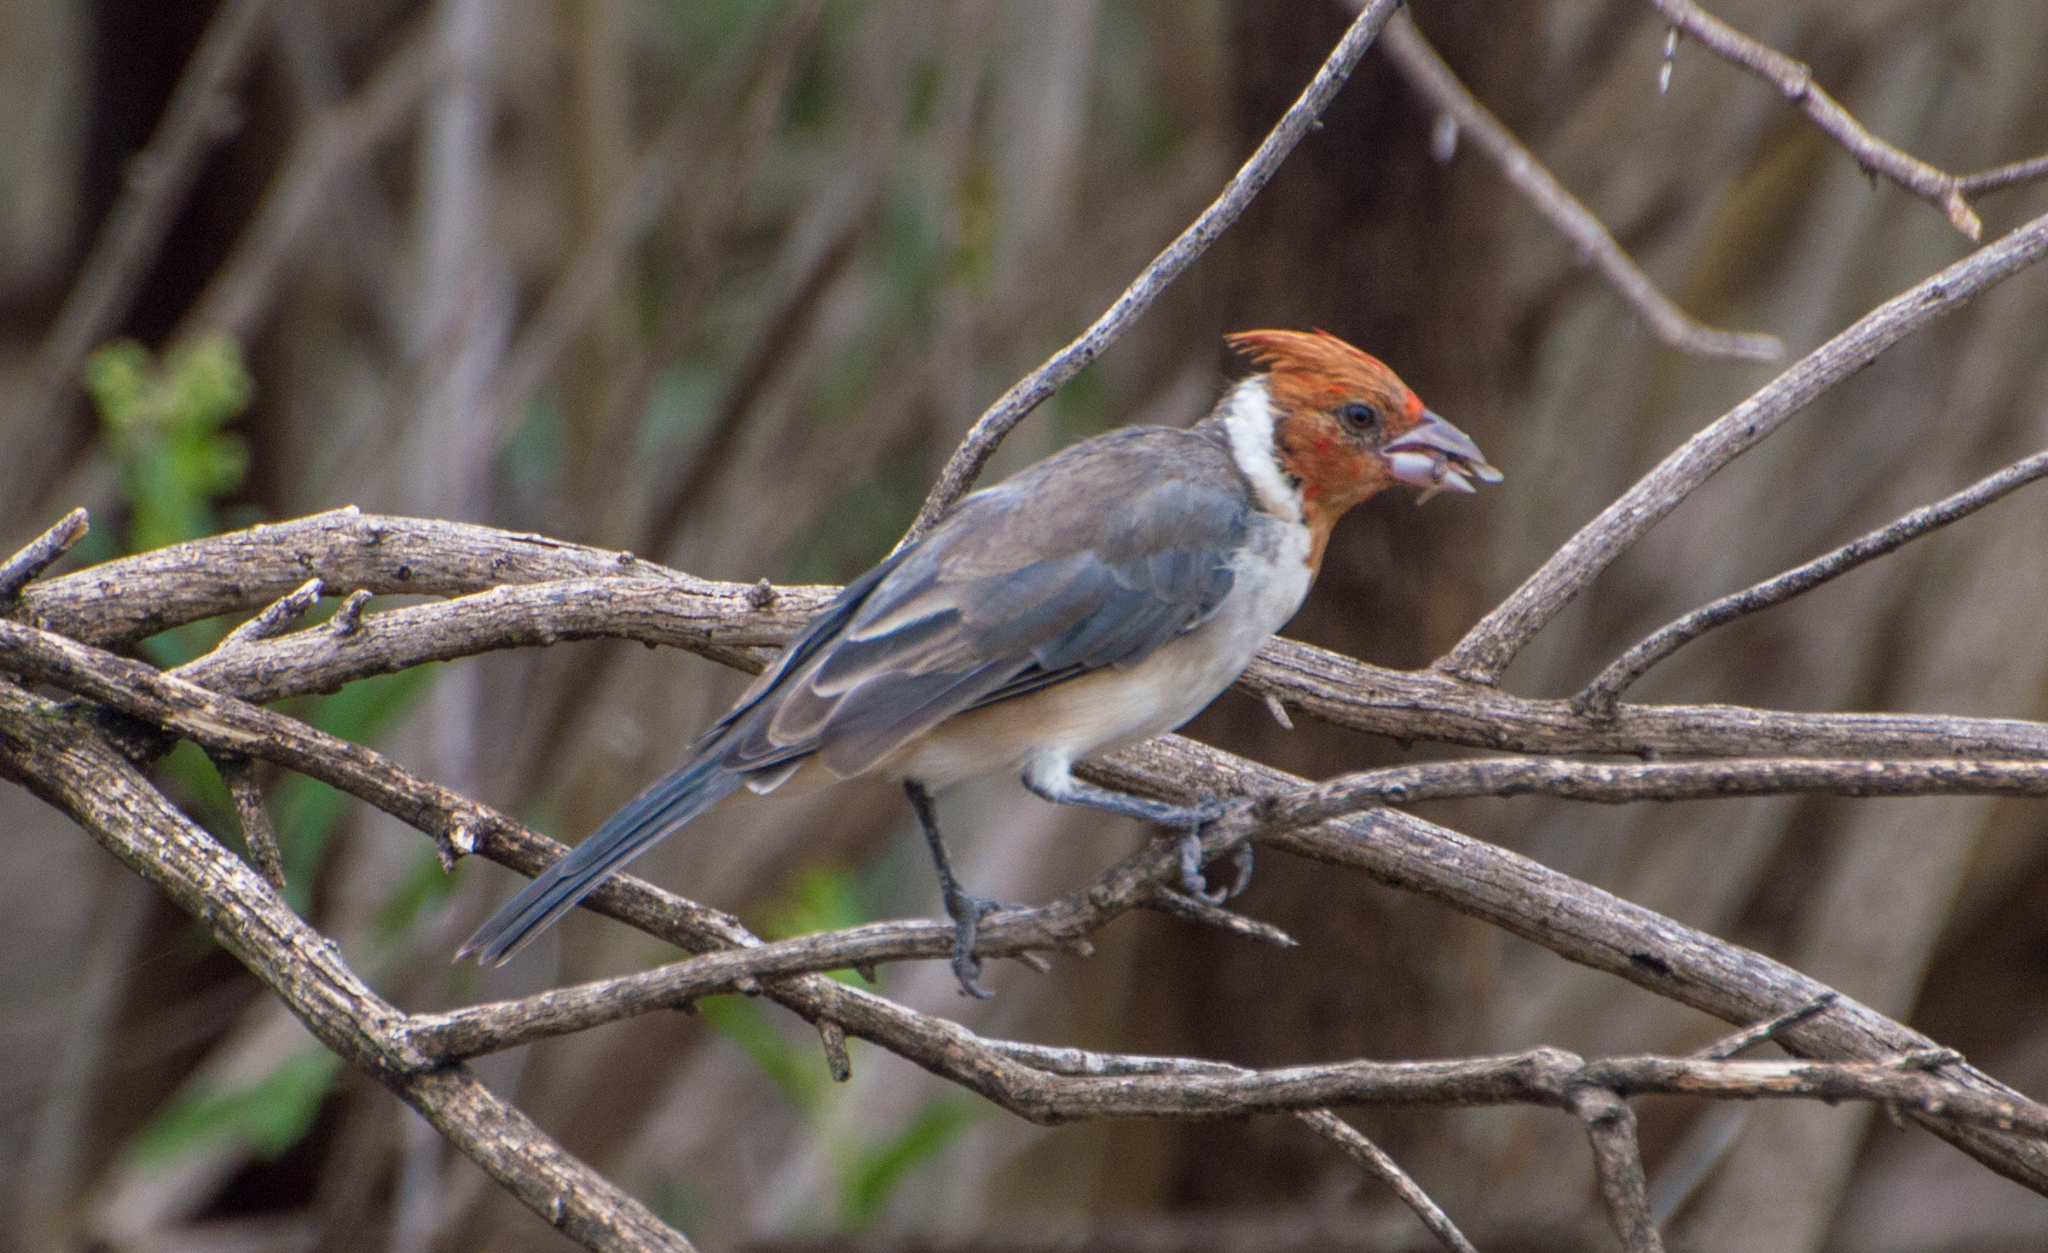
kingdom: Animalia
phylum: Chordata
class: Aves
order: Passeriformes
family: Thraupidae
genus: Paroaria
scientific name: Paroaria coronata
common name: Red-crested cardinal
